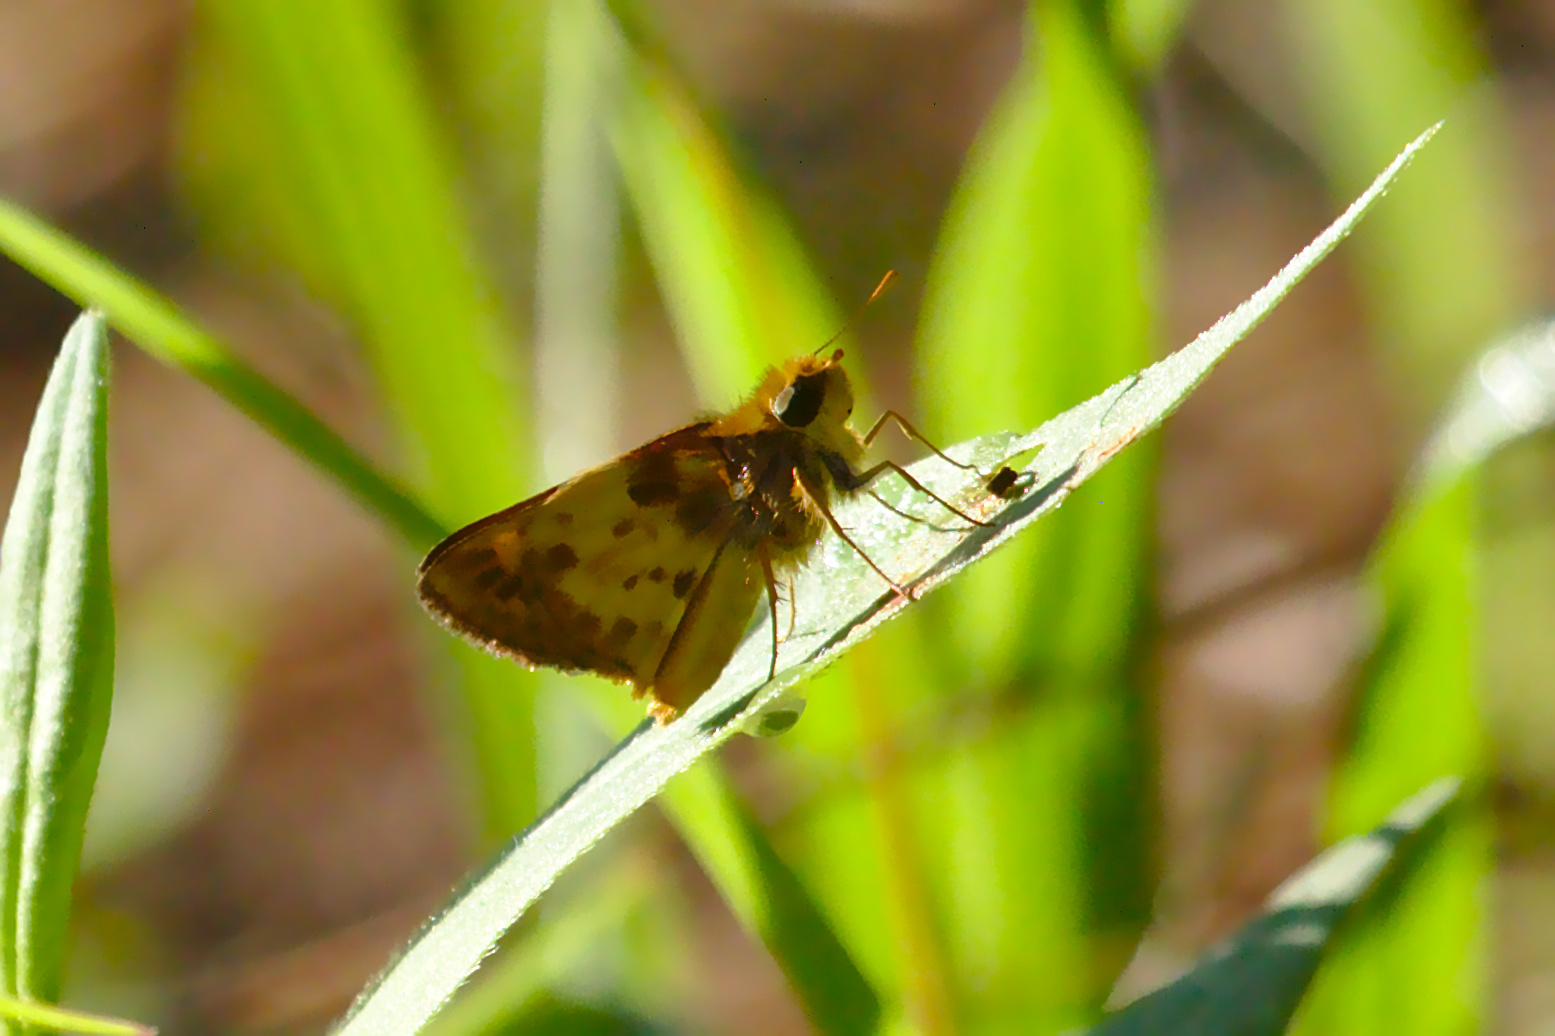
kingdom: Animalia
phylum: Arthropoda
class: Insecta
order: Lepidoptera
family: Hesperiidae
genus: Lon
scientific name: Lon zabulon
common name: Zabulon skipper
